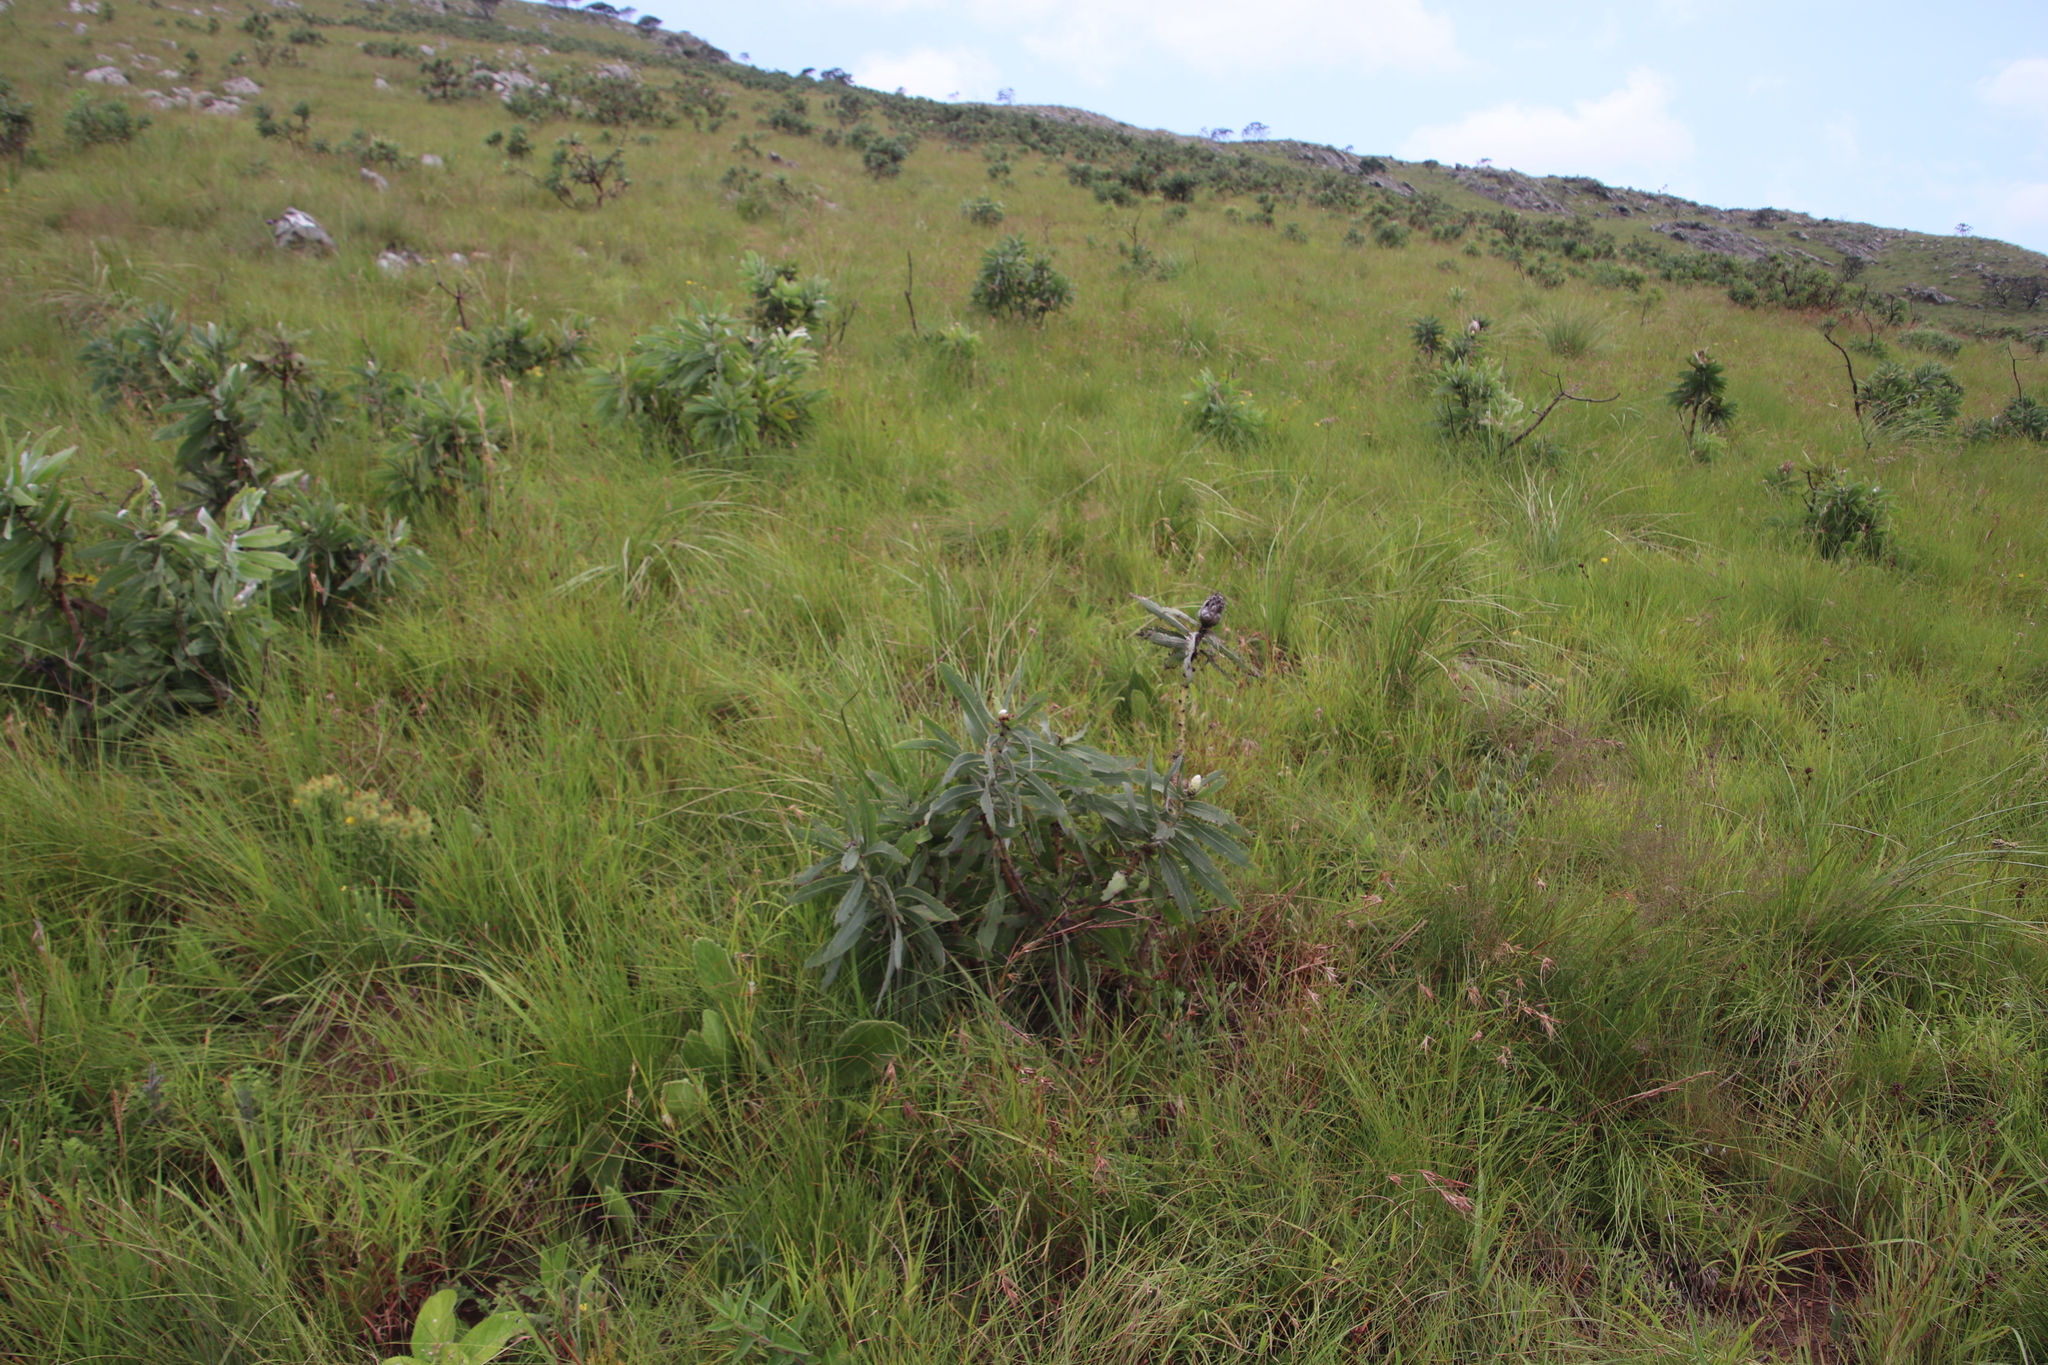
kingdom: Plantae
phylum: Tracheophyta
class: Magnoliopsida
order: Proteales
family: Proteaceae
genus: Protea
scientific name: Protea gaguedi
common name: African protea
